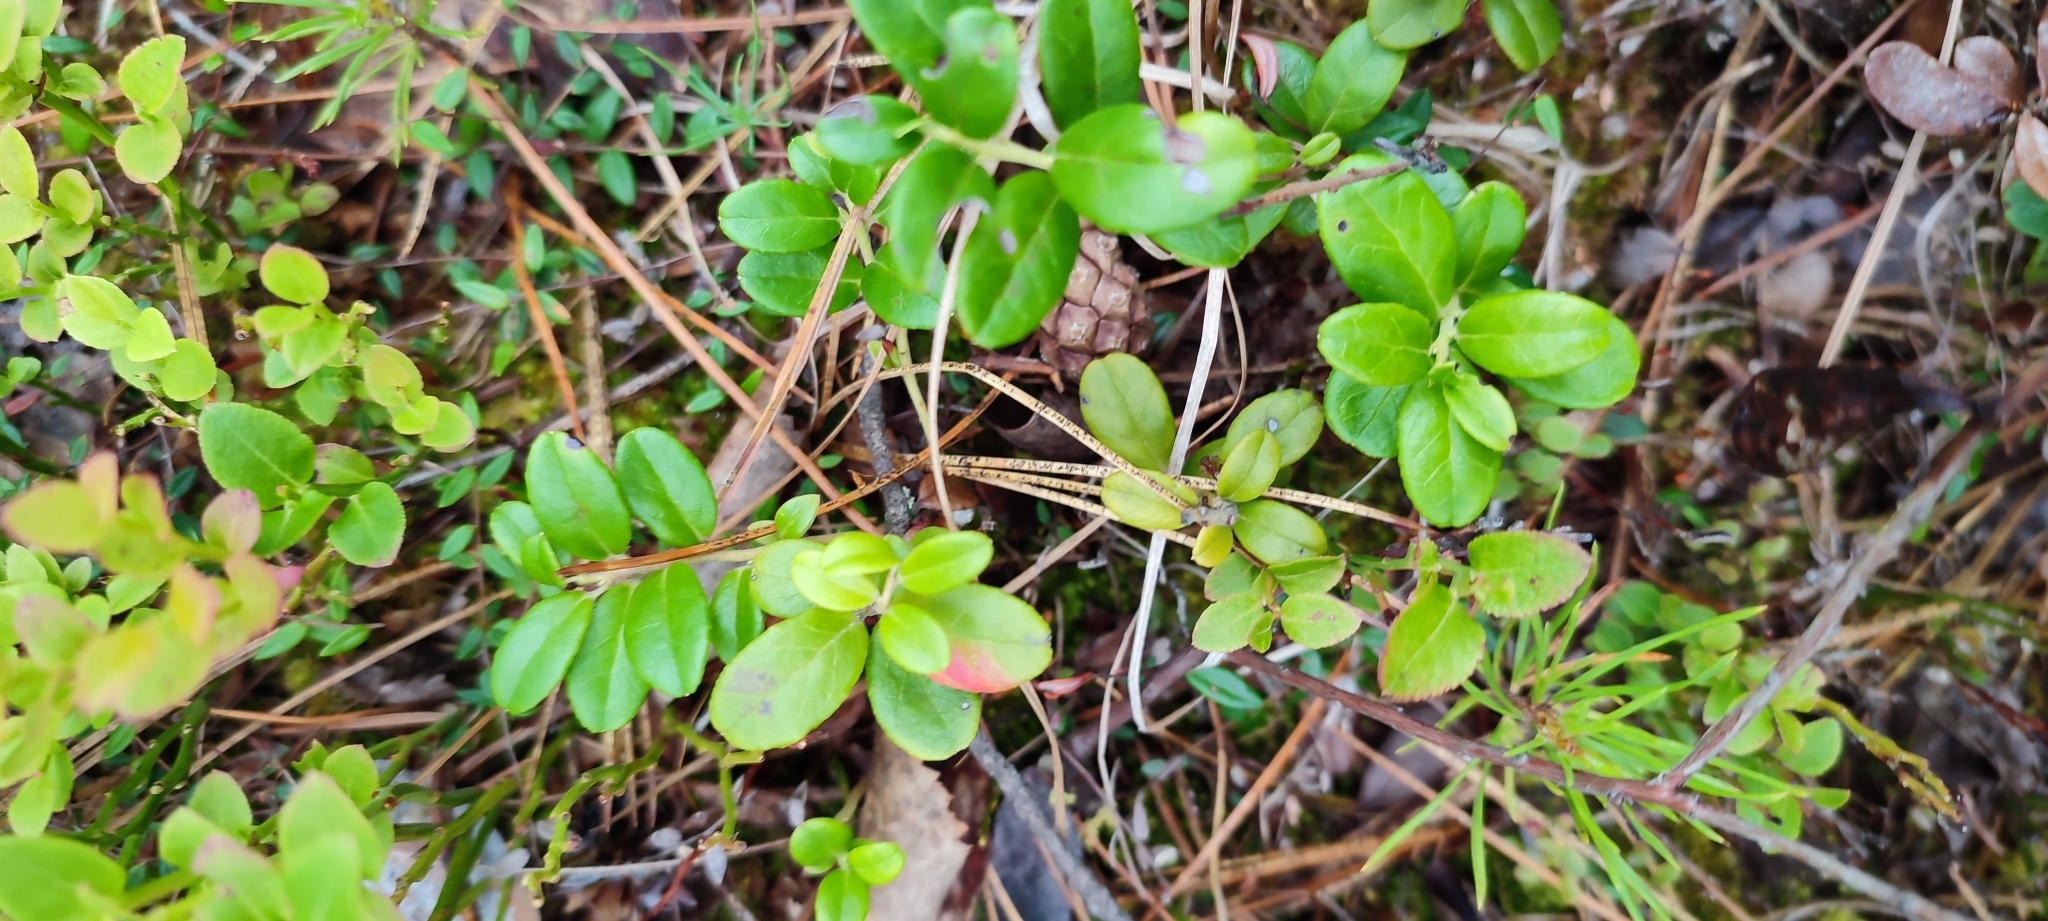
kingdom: Plantae
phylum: Tracheophyta
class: Magnoliopsida
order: Ericales
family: Ericaceae
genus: Vaccinium
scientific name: Vaccinium vitis-idaea
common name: Cowberry
